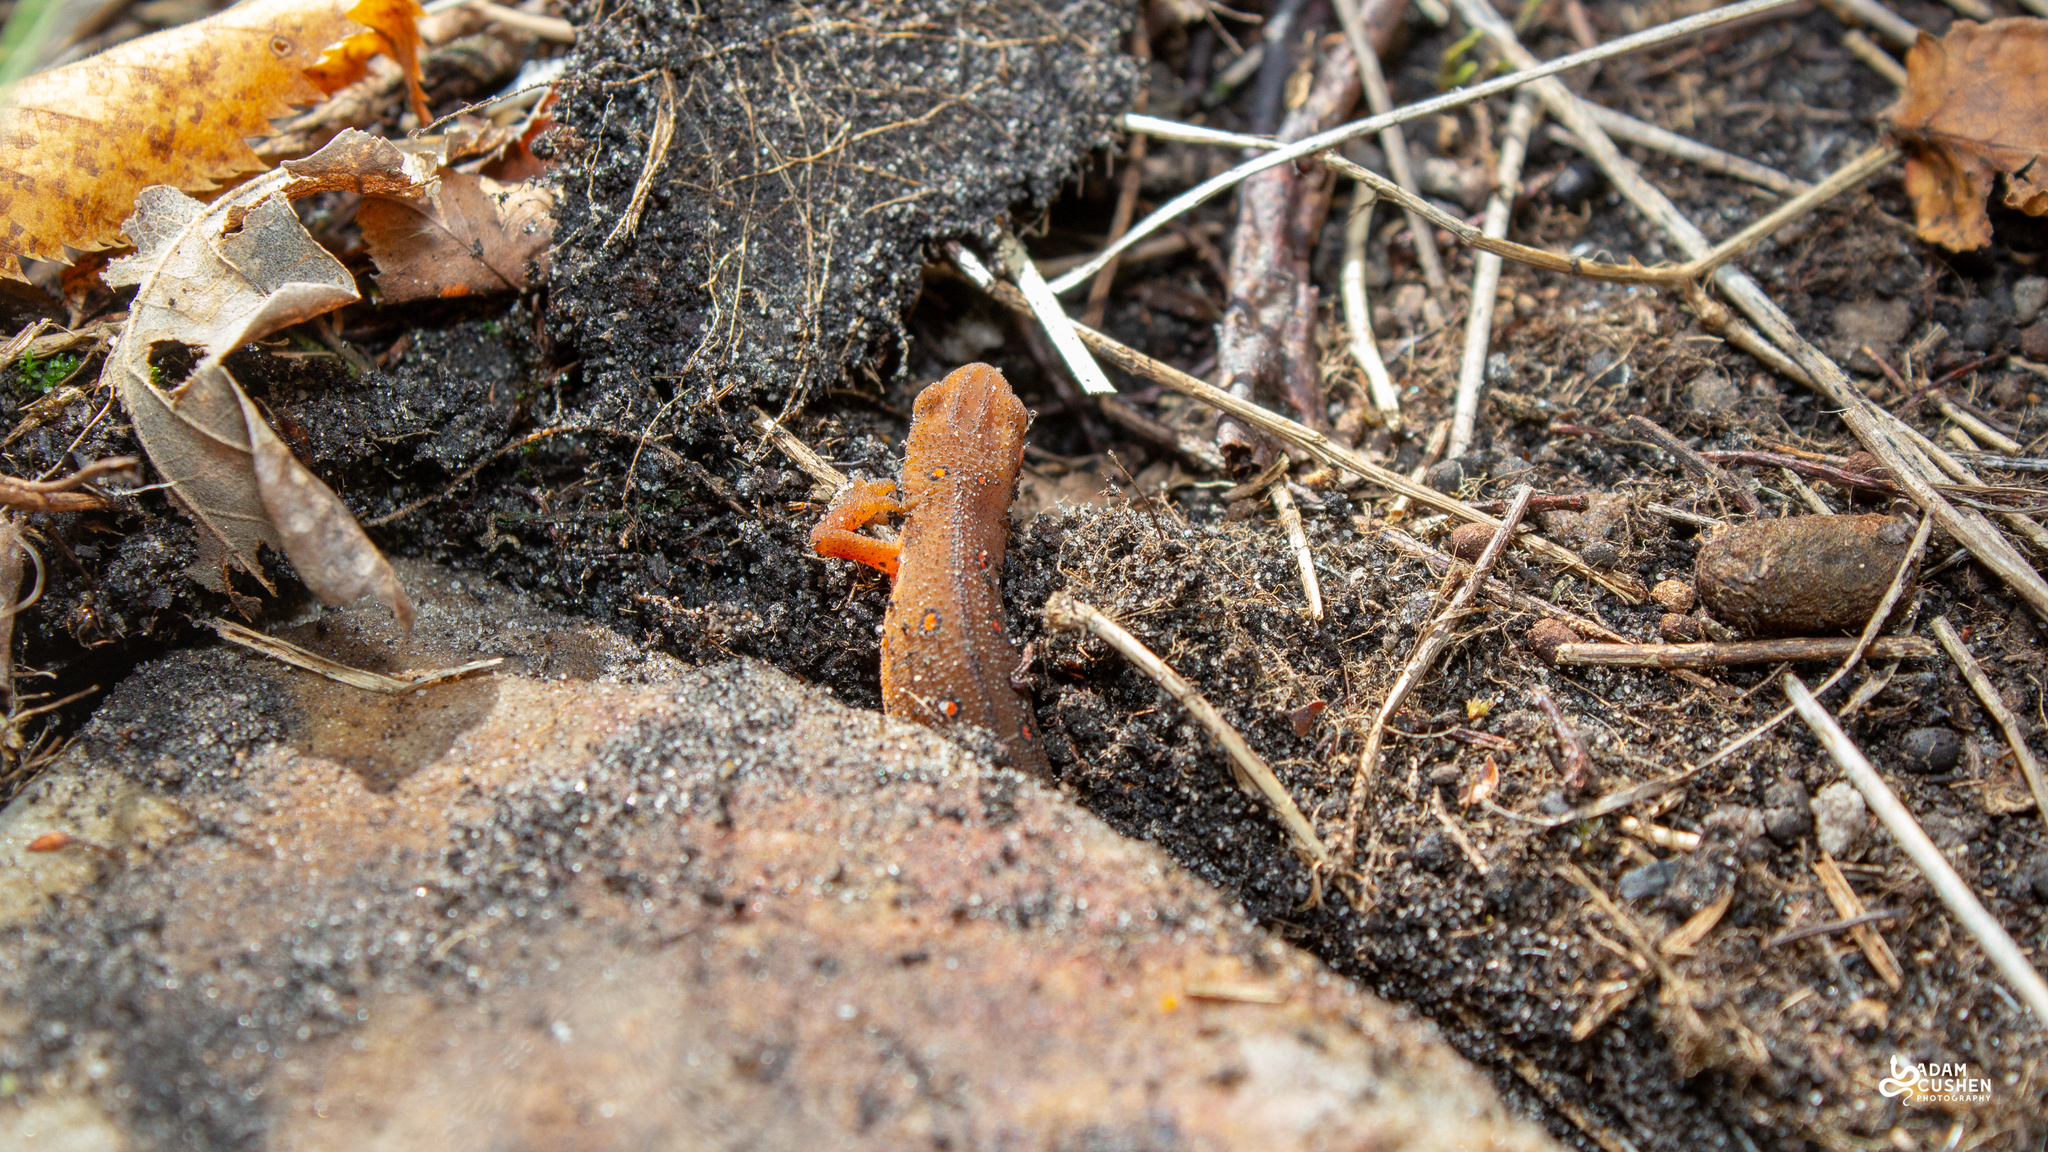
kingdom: Animalia
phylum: Chordata
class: Amphibia
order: Caudata
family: Salamandridae
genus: Notophthalmus
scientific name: Notophthalmus viridescens
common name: Eastern newt
